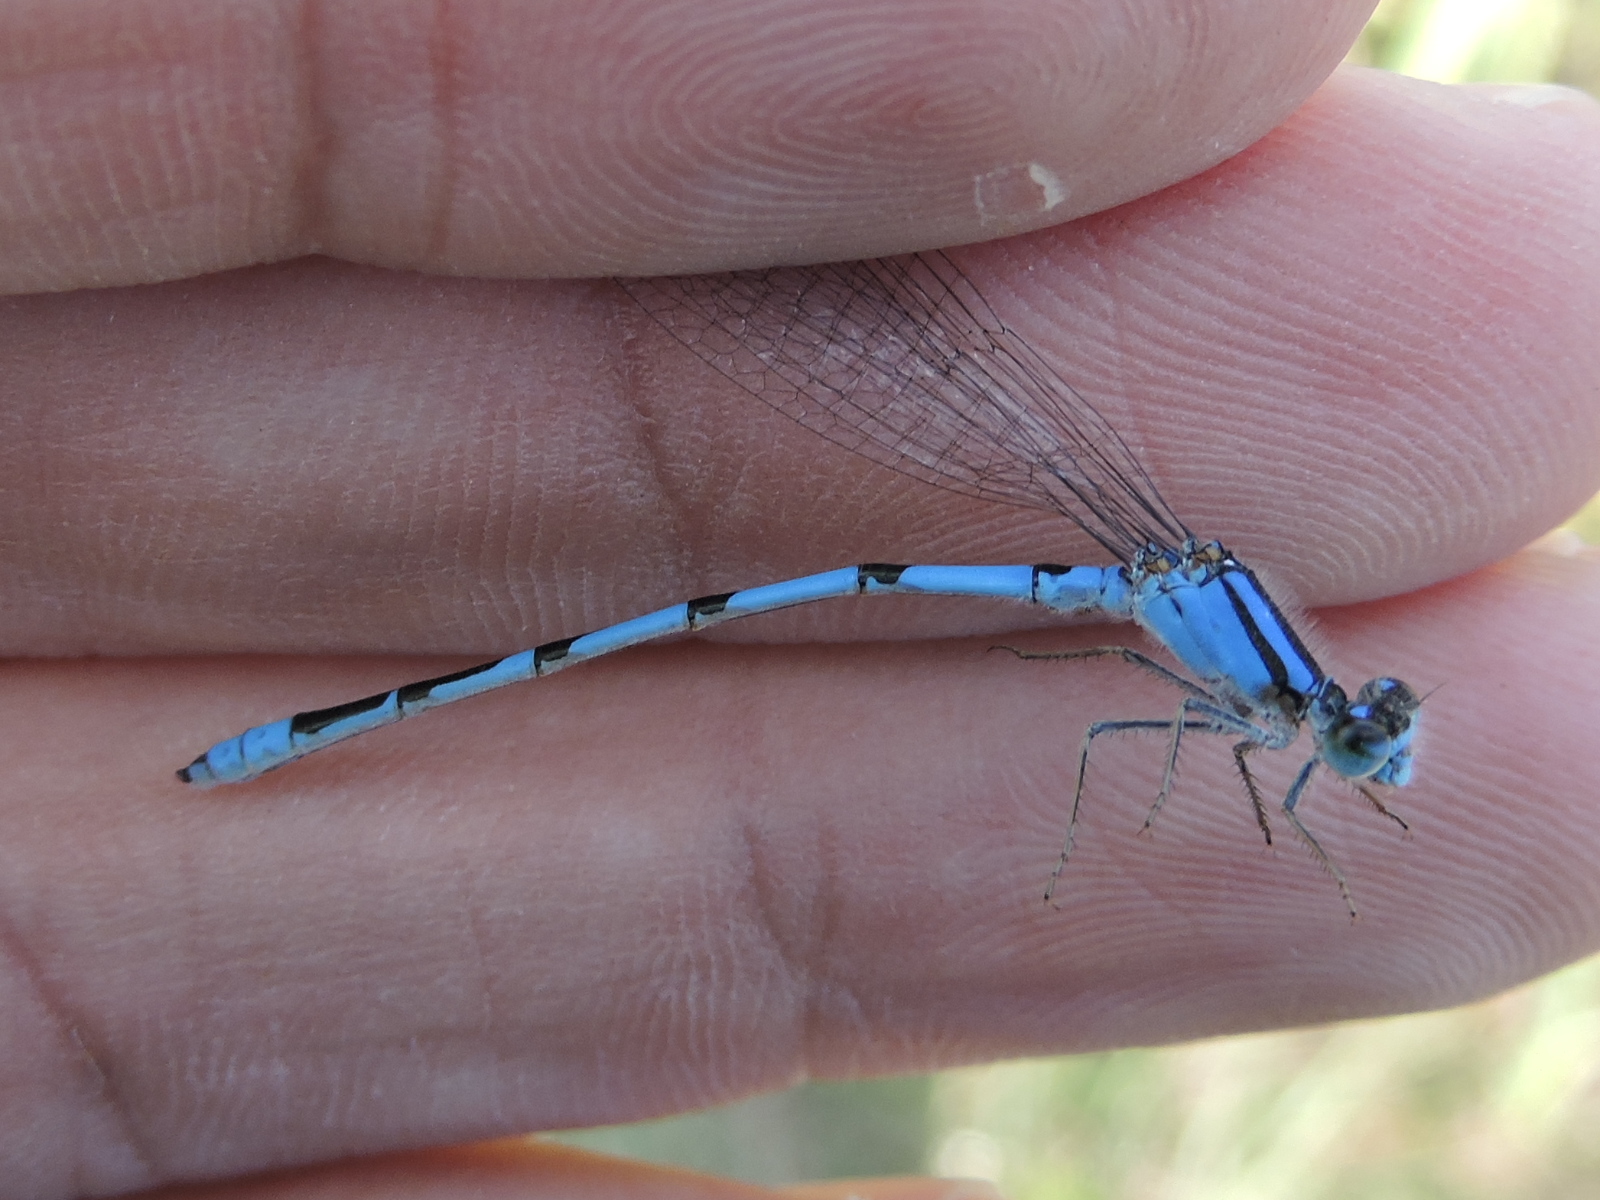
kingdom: Animalia
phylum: Arthropoda
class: Insecta
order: Odonata
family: Coenagrionidae
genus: Enallagma
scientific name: Enallagma civile
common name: Damselfly
